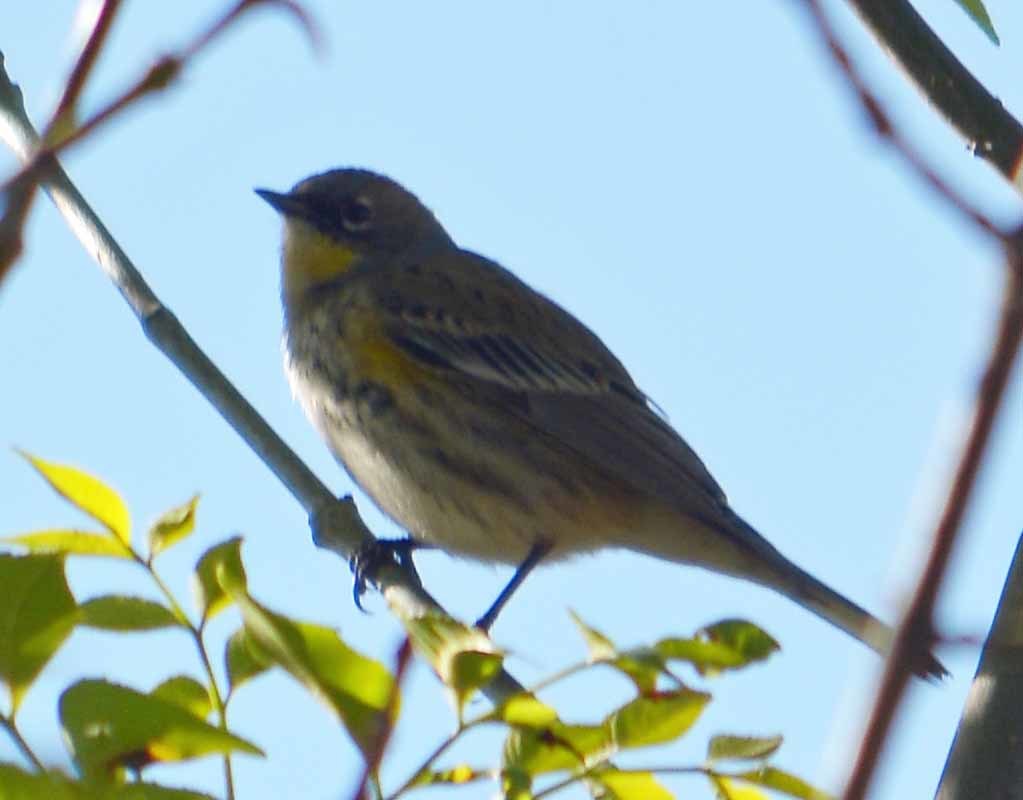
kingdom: Animalia
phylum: Chordata
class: Aves
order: Passeriformes
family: Parulidae
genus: Setophaga
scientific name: Setophaga coronata
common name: Myrtle warbler
